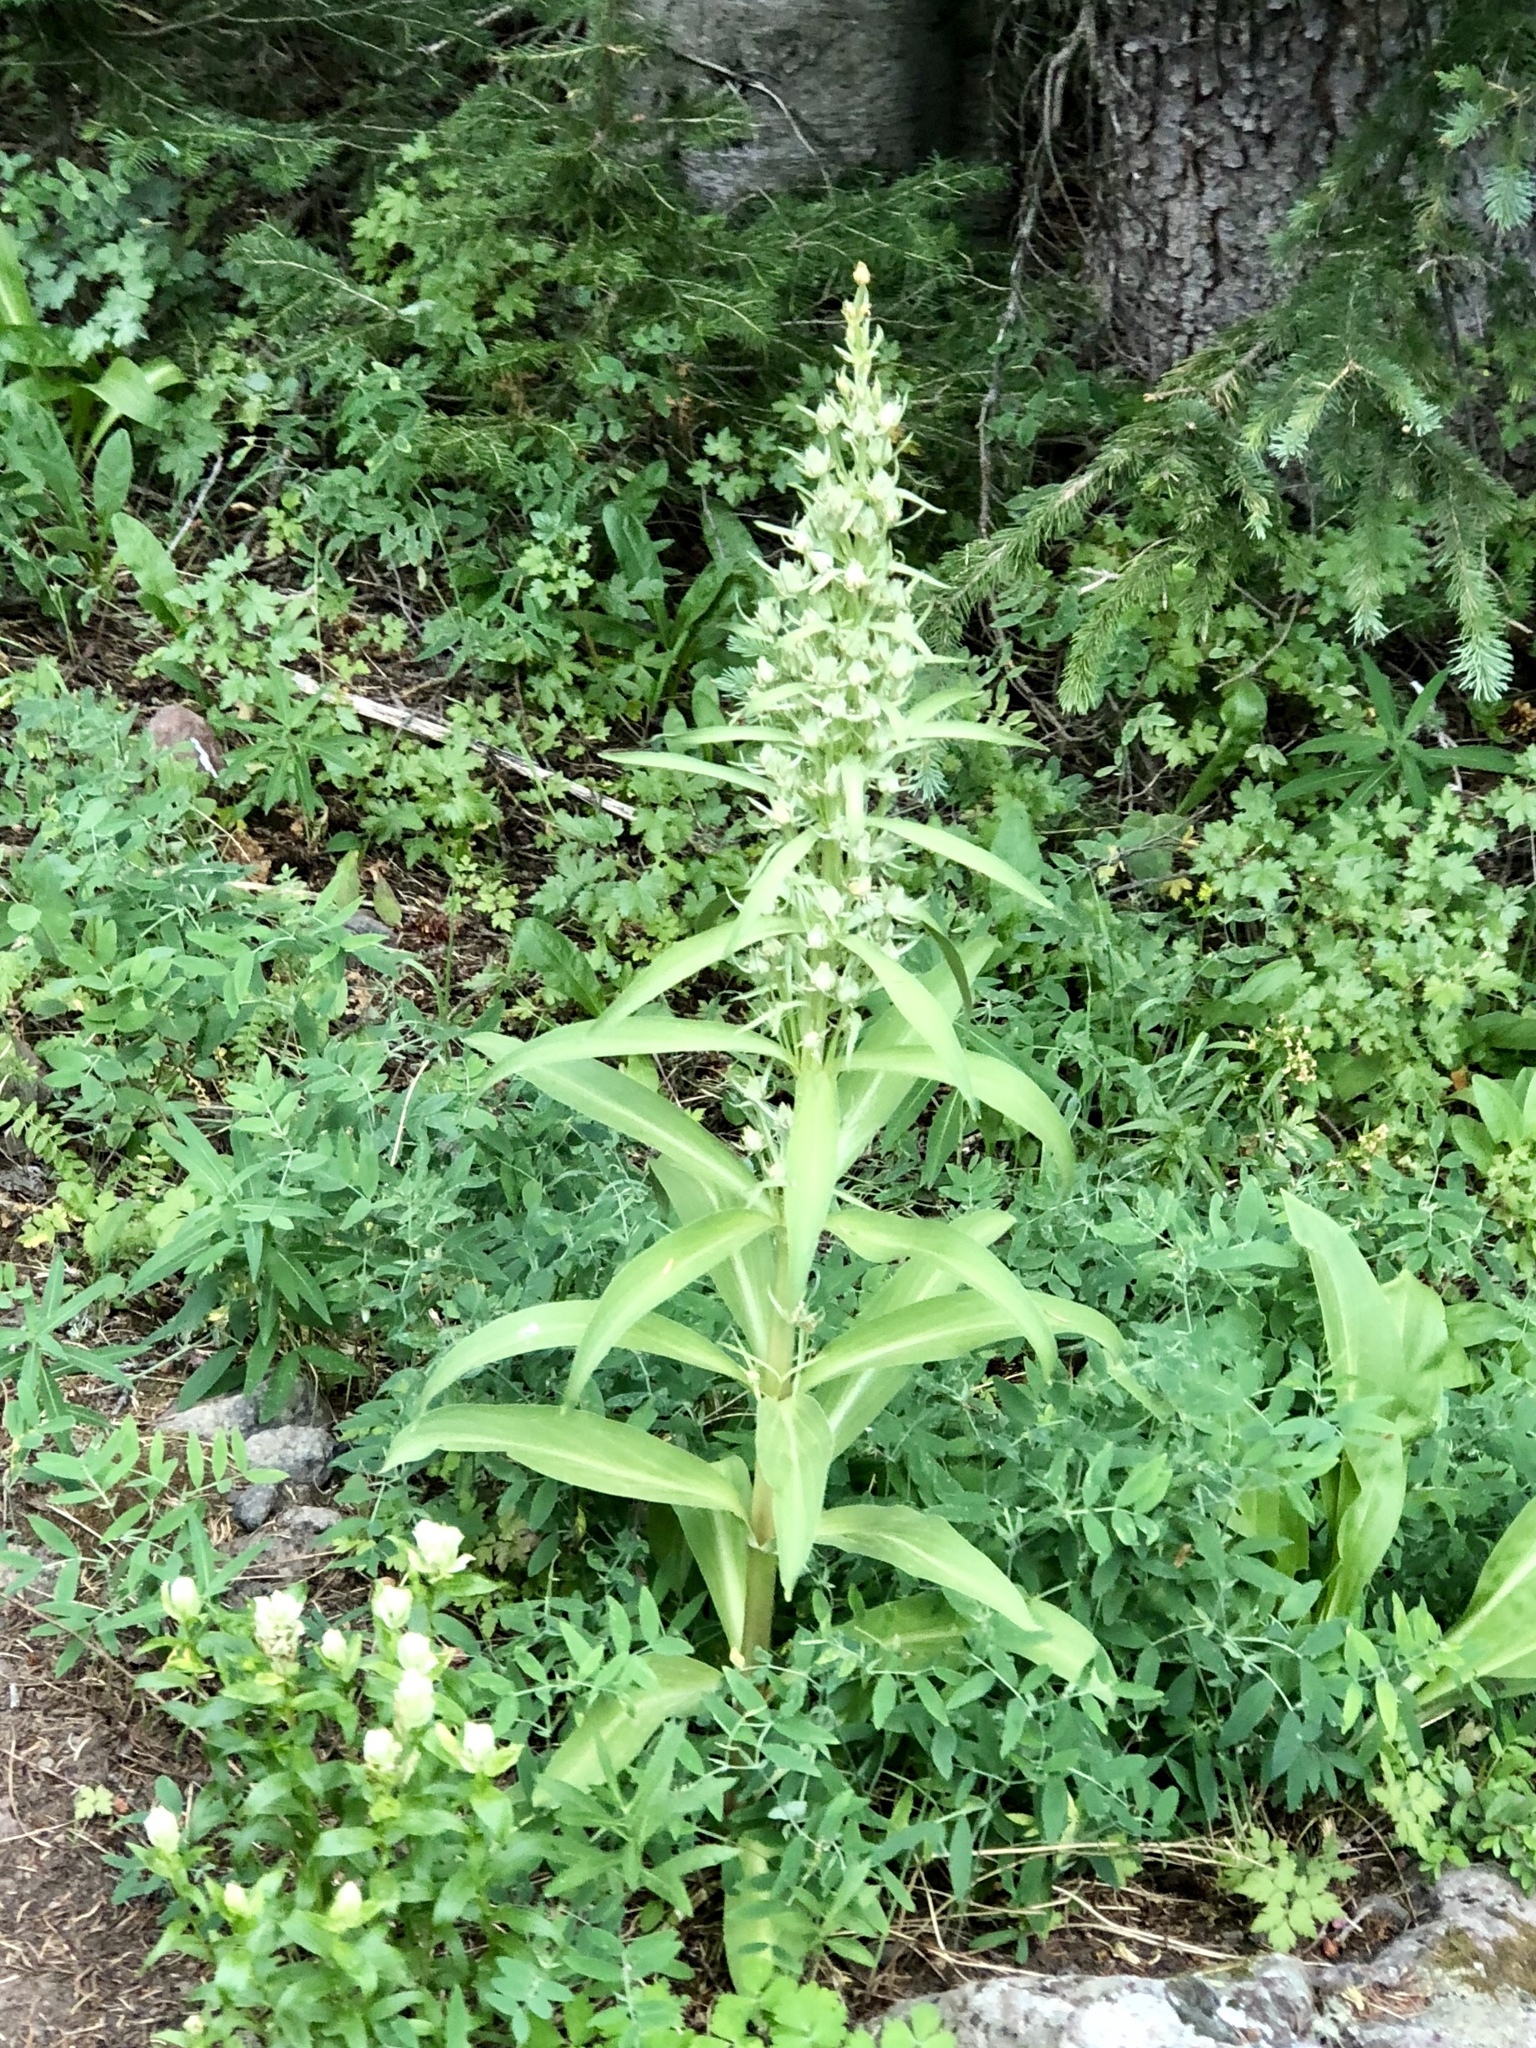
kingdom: Plantae
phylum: Tracheophyta
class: Magnoliopsida
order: Gentianales
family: Gentianaceae
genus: Frasera
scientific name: Frasera speciosa
